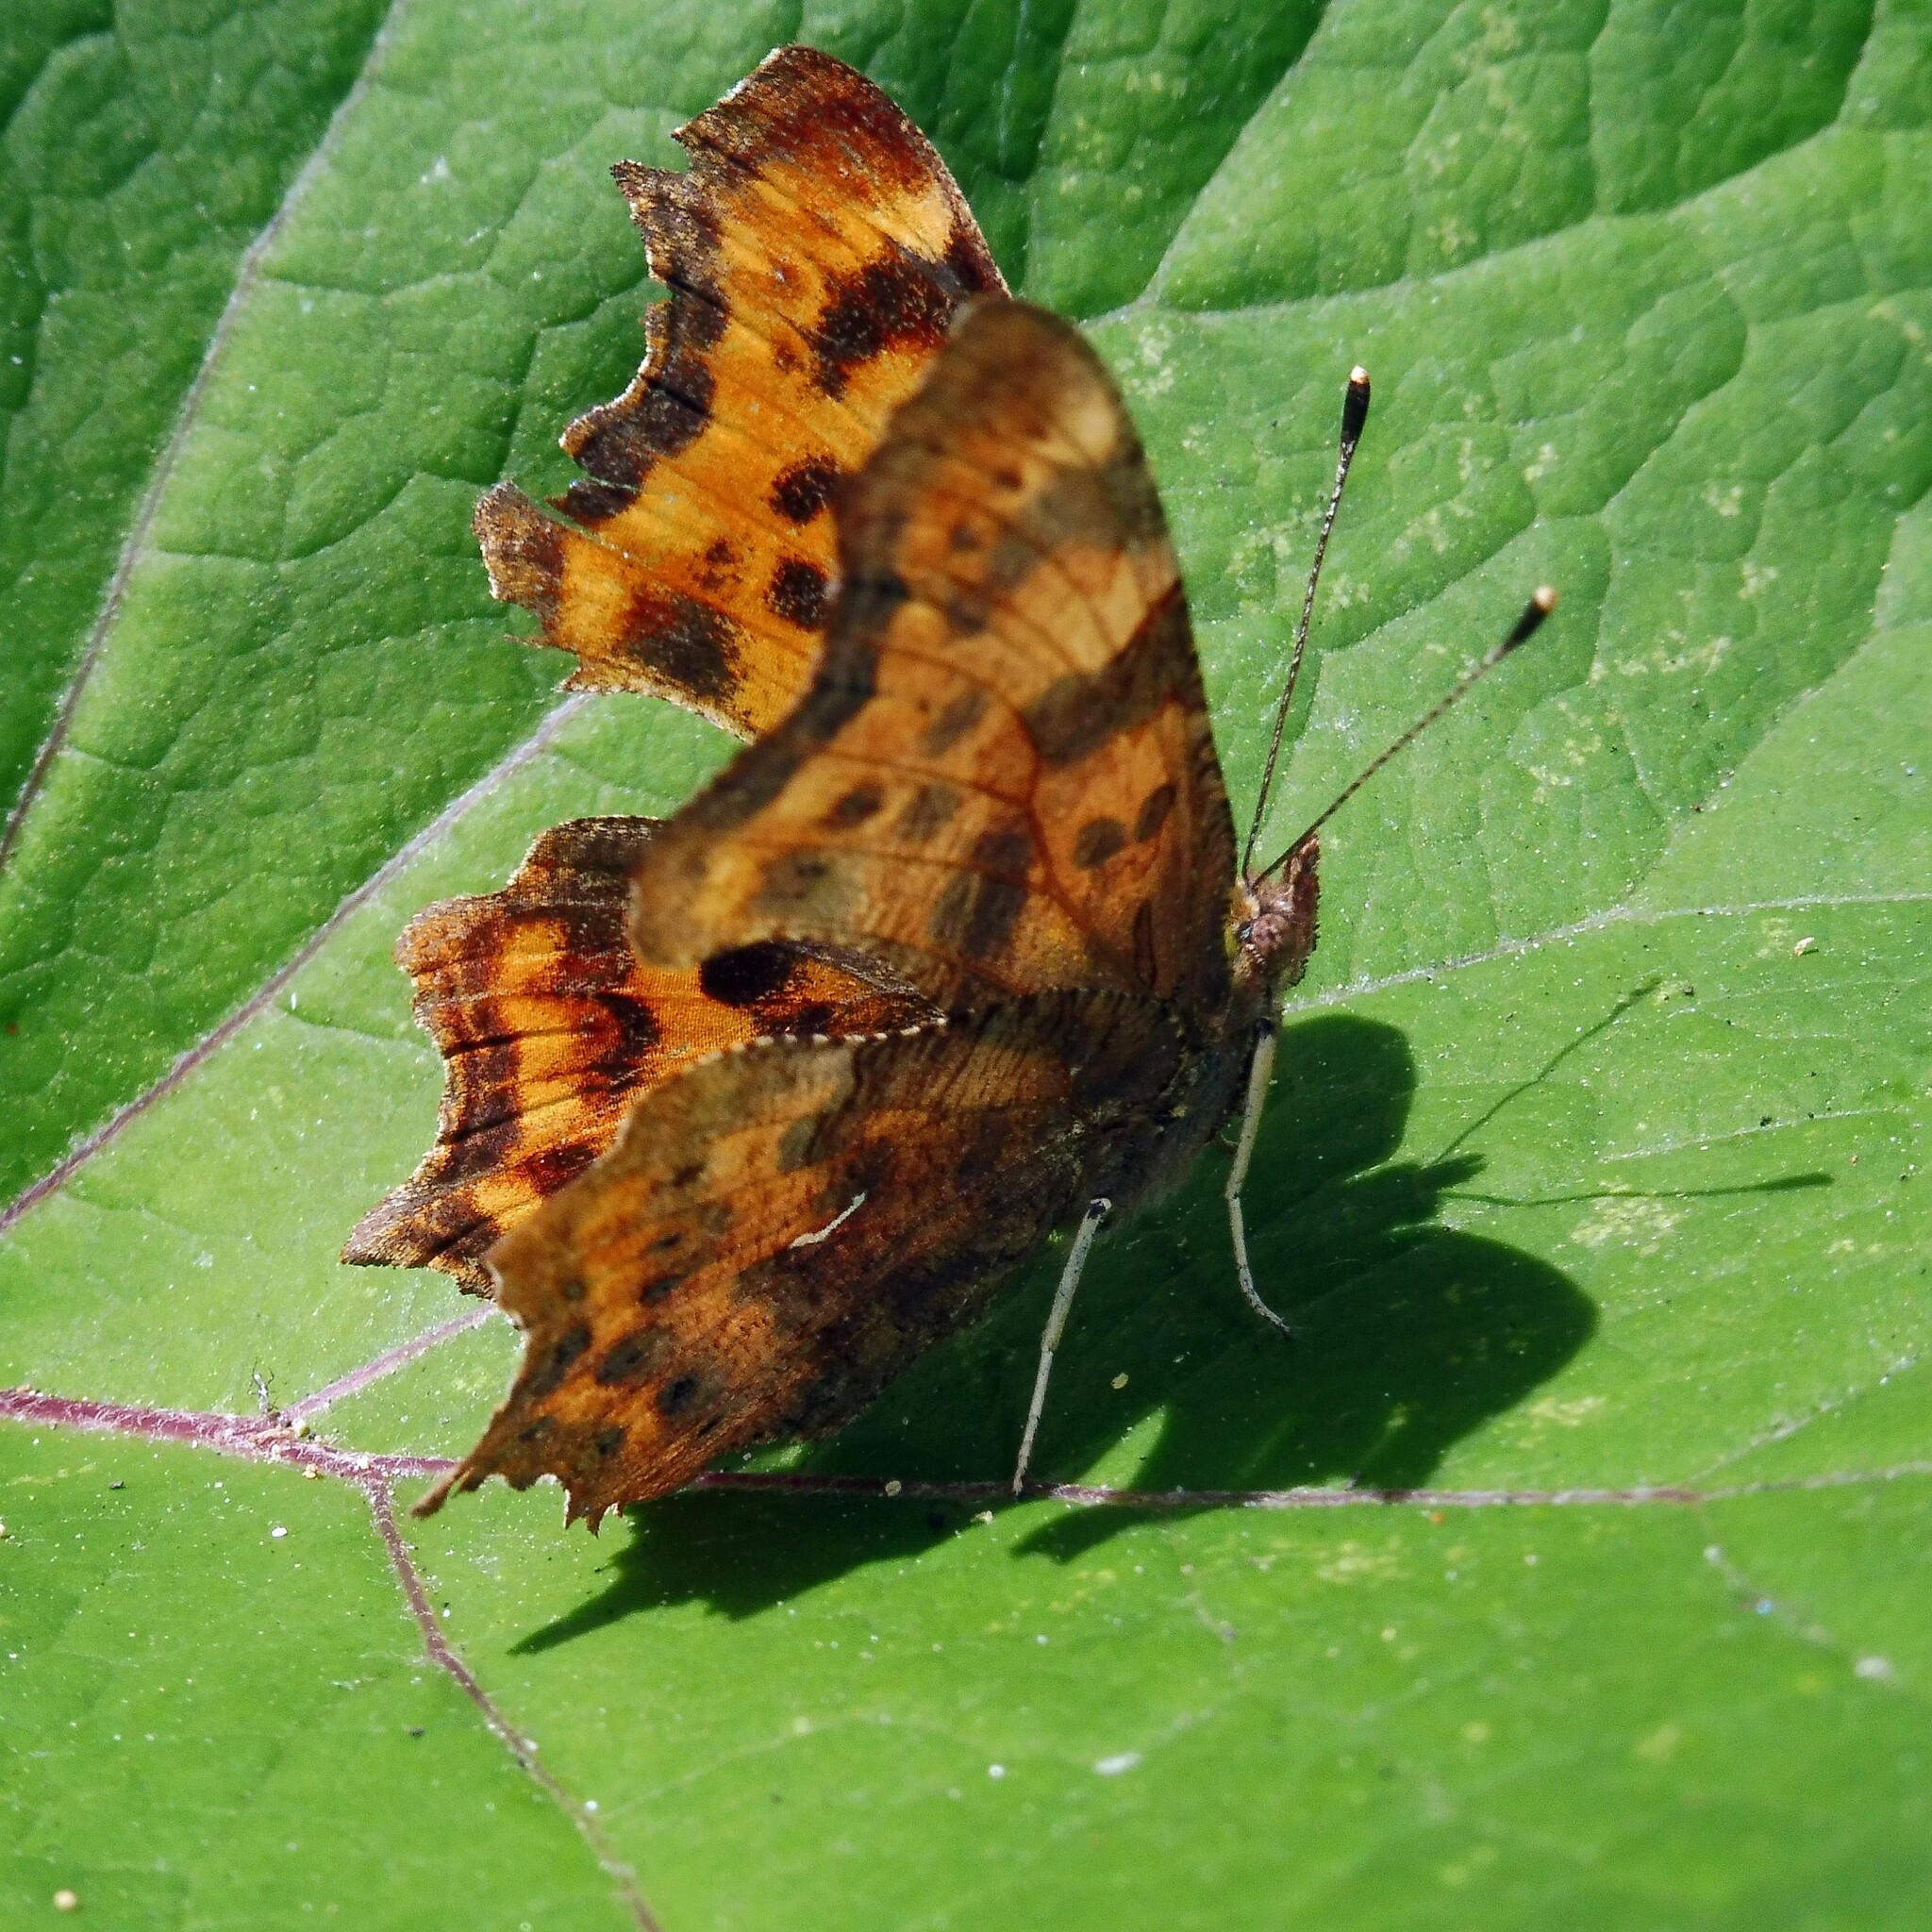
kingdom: Animalia
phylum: Arthropoda
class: Insecta
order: Lepidoptera
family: Nymphalidae
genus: Polygonia
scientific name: Polygonia c-album
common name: Comma
